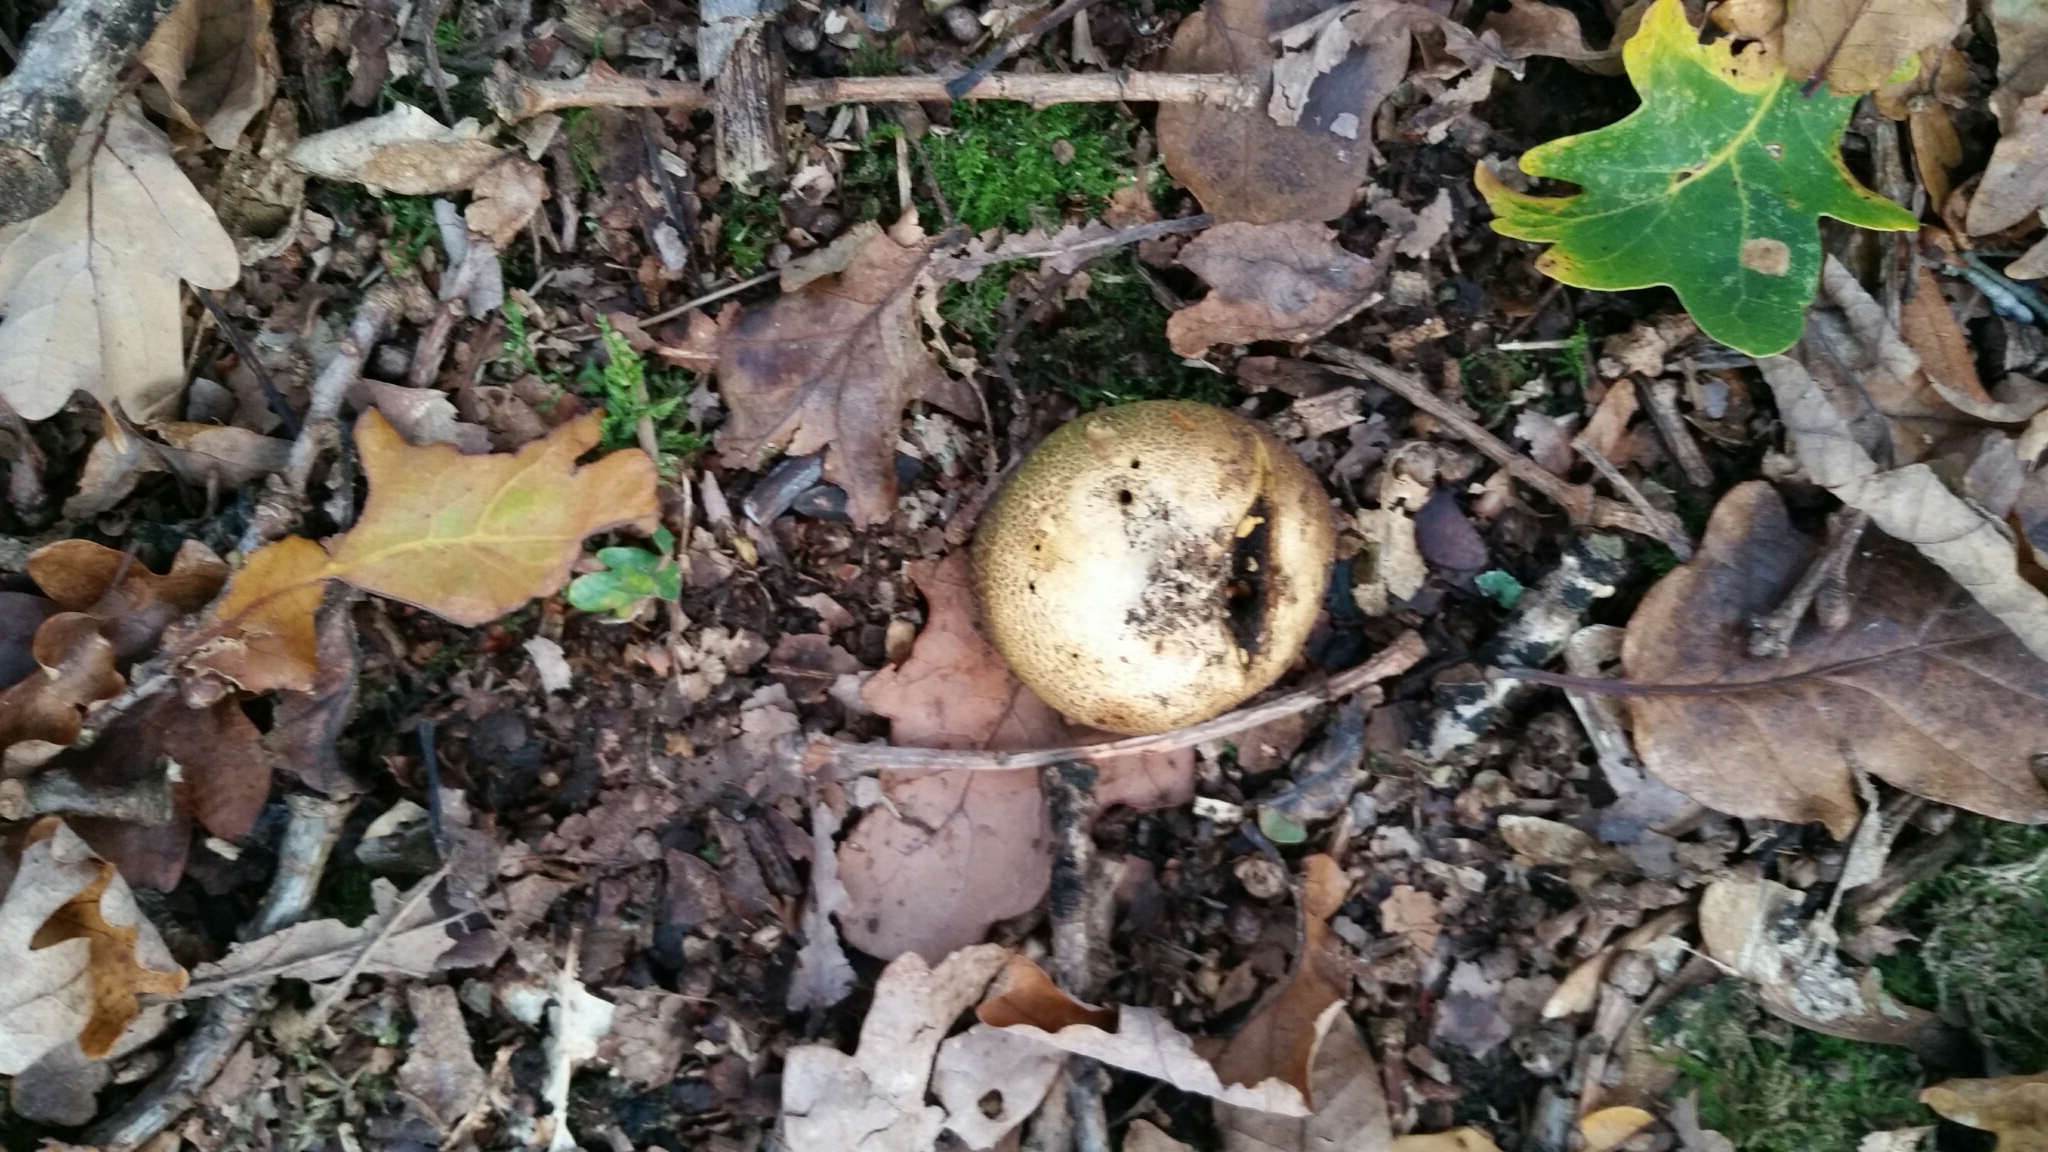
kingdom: Fungi
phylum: Basidiomycota
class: Agaricomycetes
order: Boletales
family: Sclerodermataceae
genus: Scleroderma
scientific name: Scleroderma citrinum
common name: Common earthball
